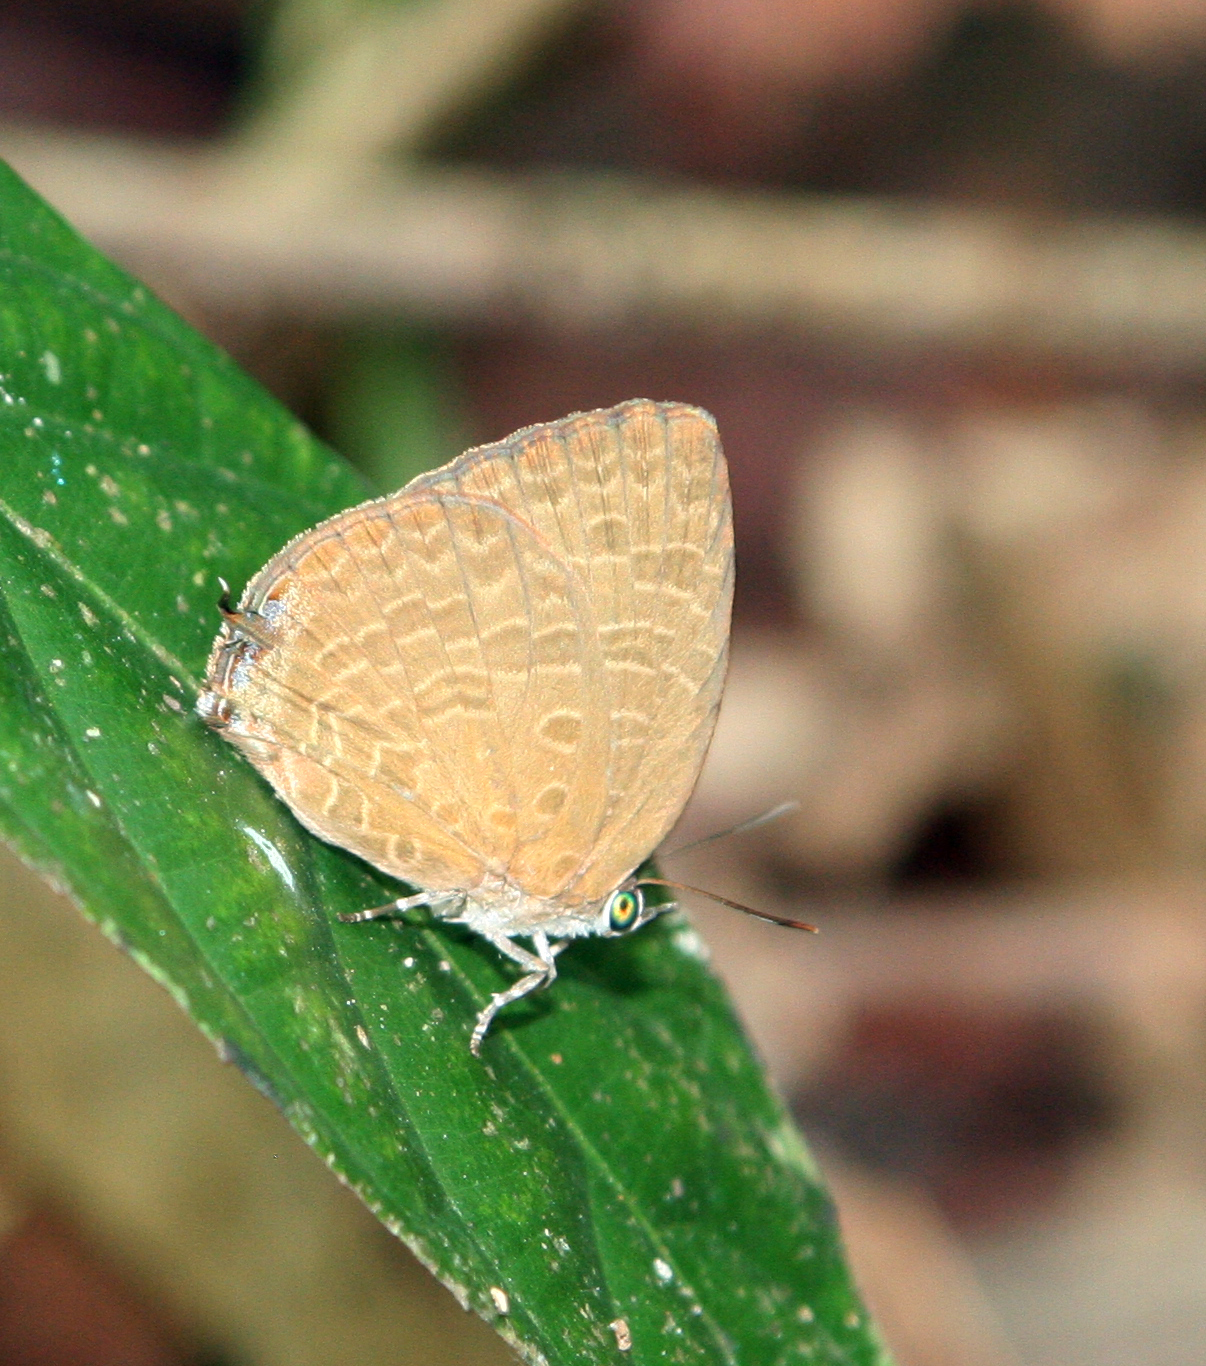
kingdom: Animalia
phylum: Arthropoda
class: Insecta
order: Lepidoptera
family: Lycaenidae
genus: Arhopala
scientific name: Arhopala elopura
